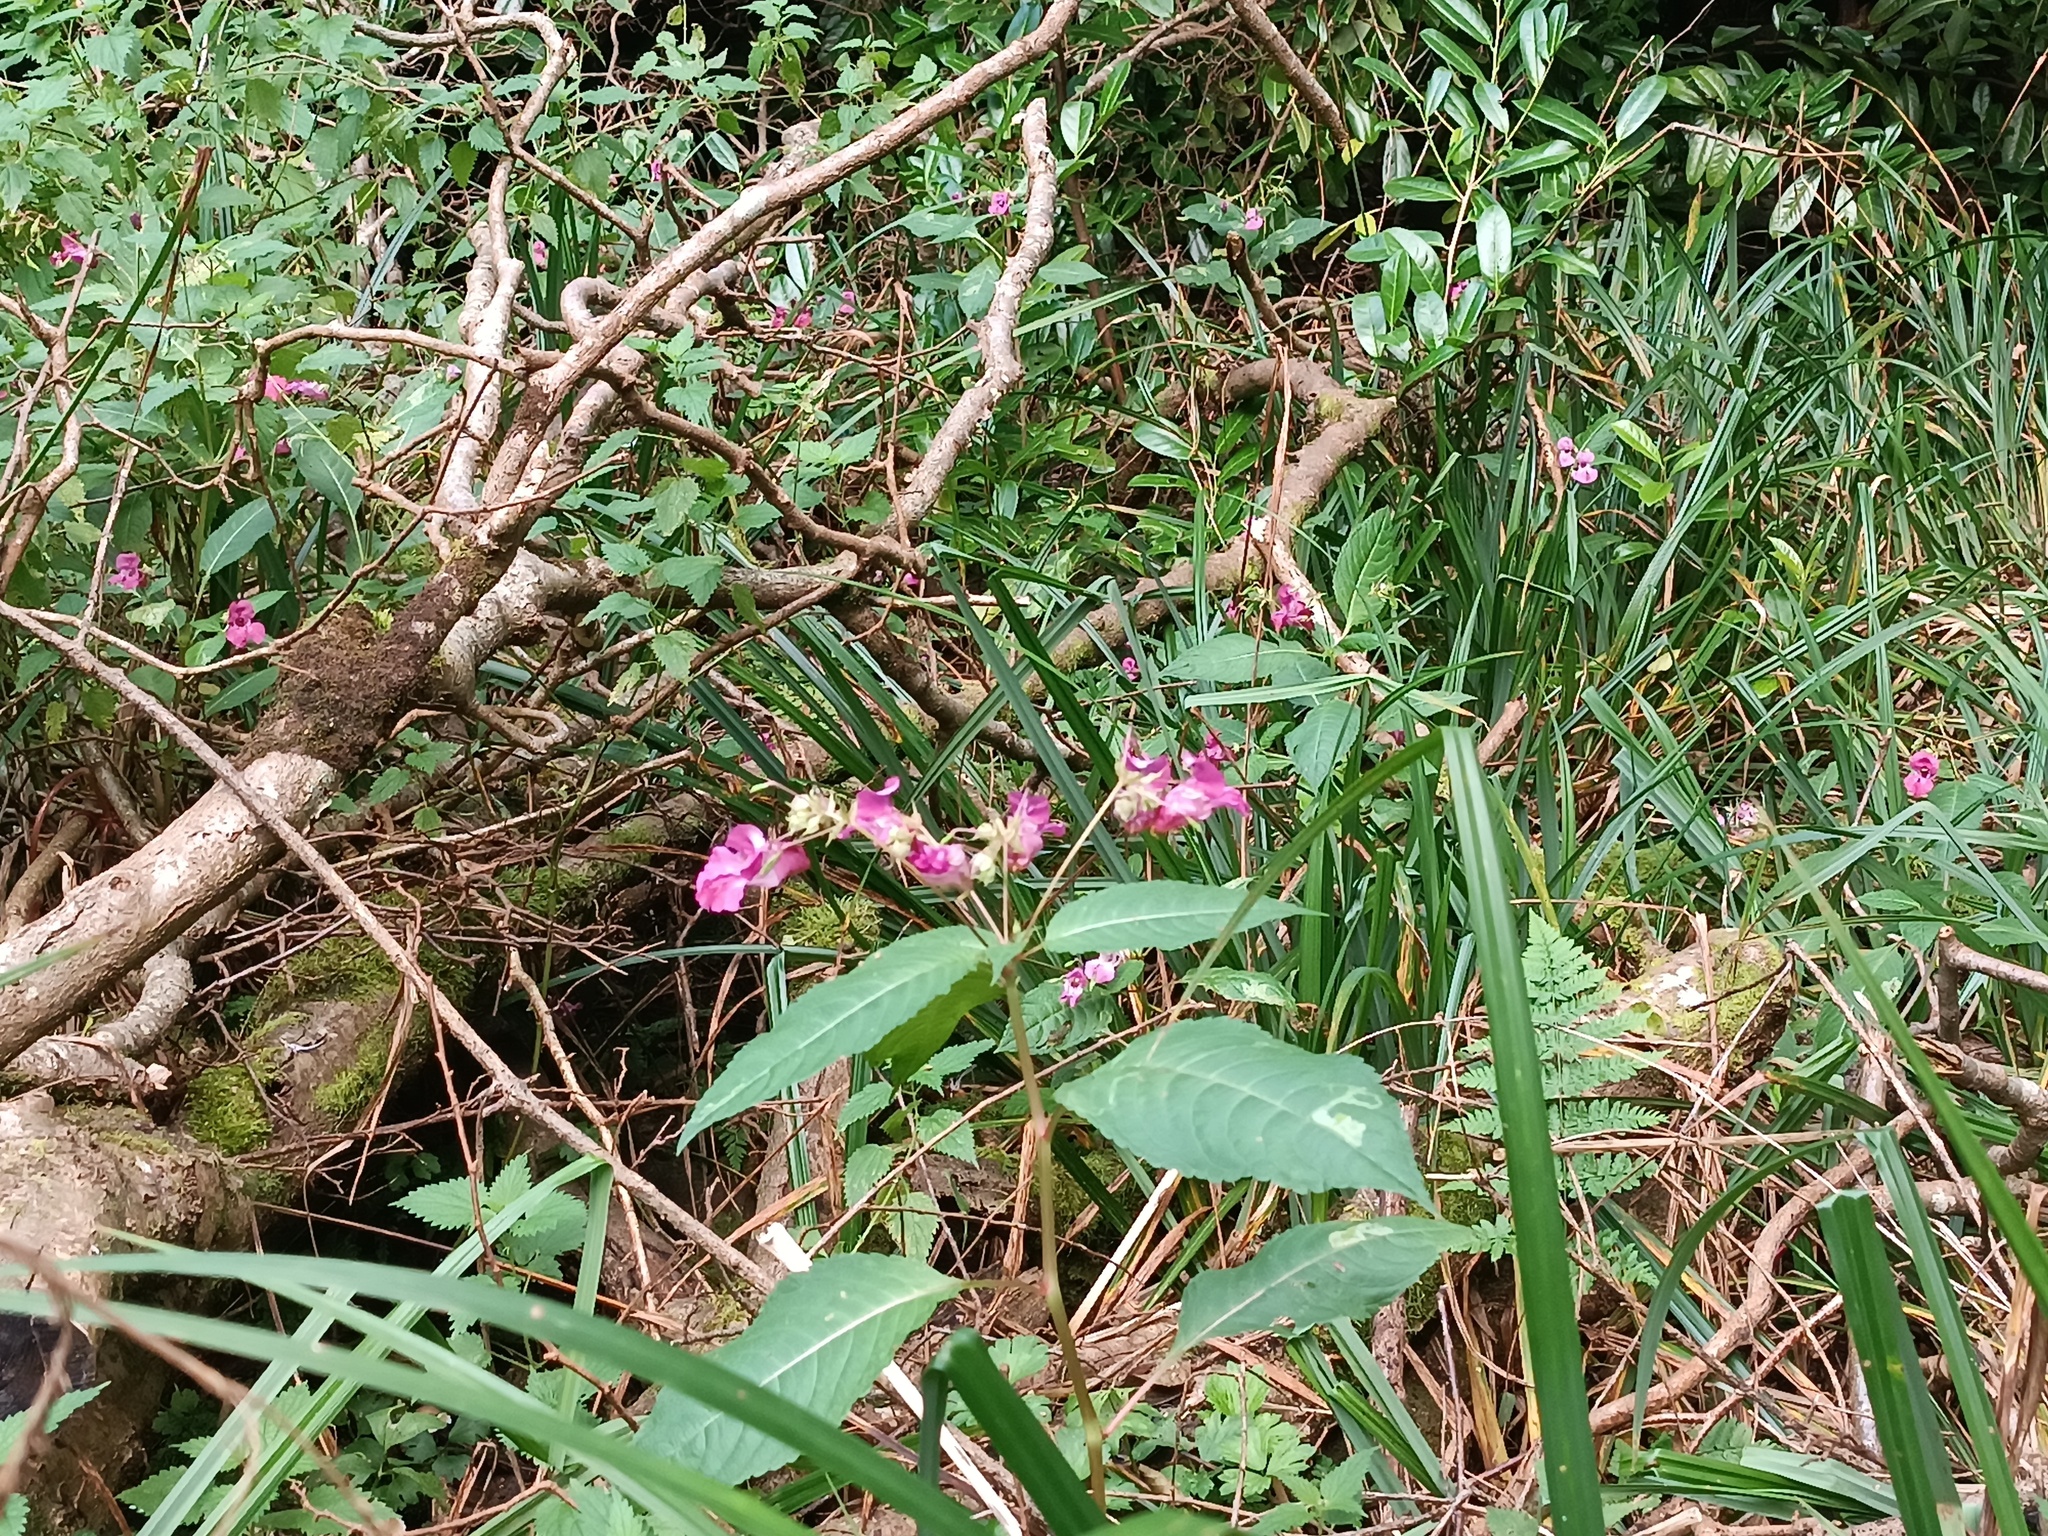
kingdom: Plantae
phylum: Tracheophyta
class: Magnoliopsida
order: Ericales
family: Balsaminaceae
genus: Impatiens
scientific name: Impatiens glandulifera
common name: Himalayan balsam
